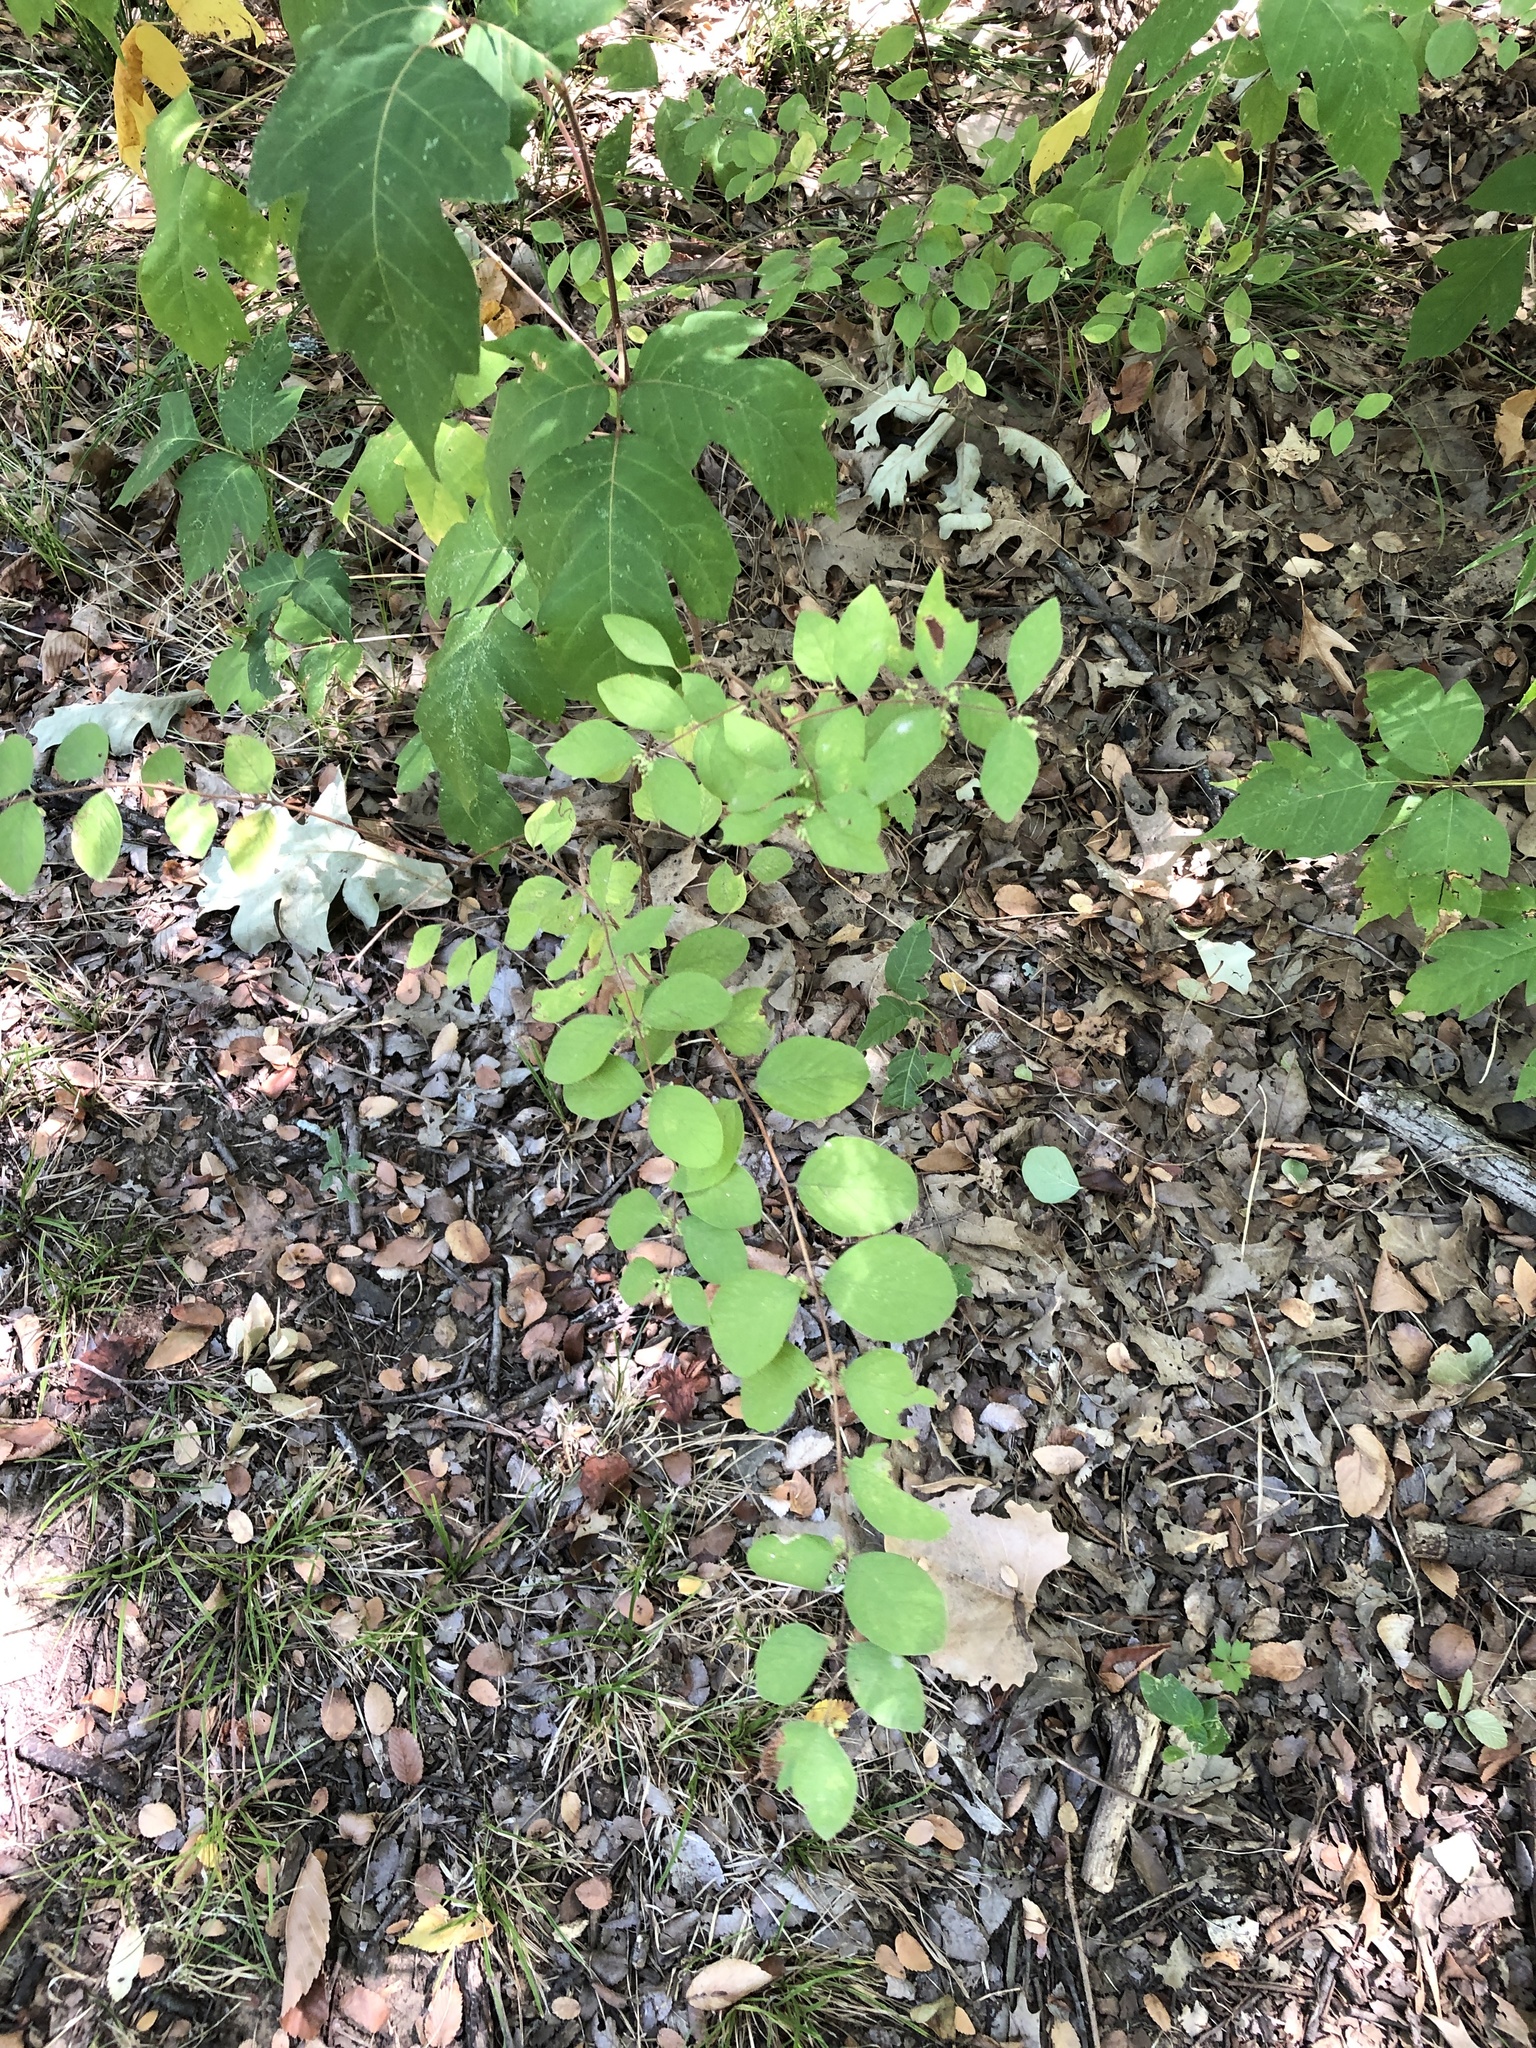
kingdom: Plantae
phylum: Tracheophyta
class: Magnoliopsida
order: Dipsacales
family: Caprifoliaceae
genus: Symphoricarpos
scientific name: Symphoricarpos orbiculatus
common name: Coralberry
